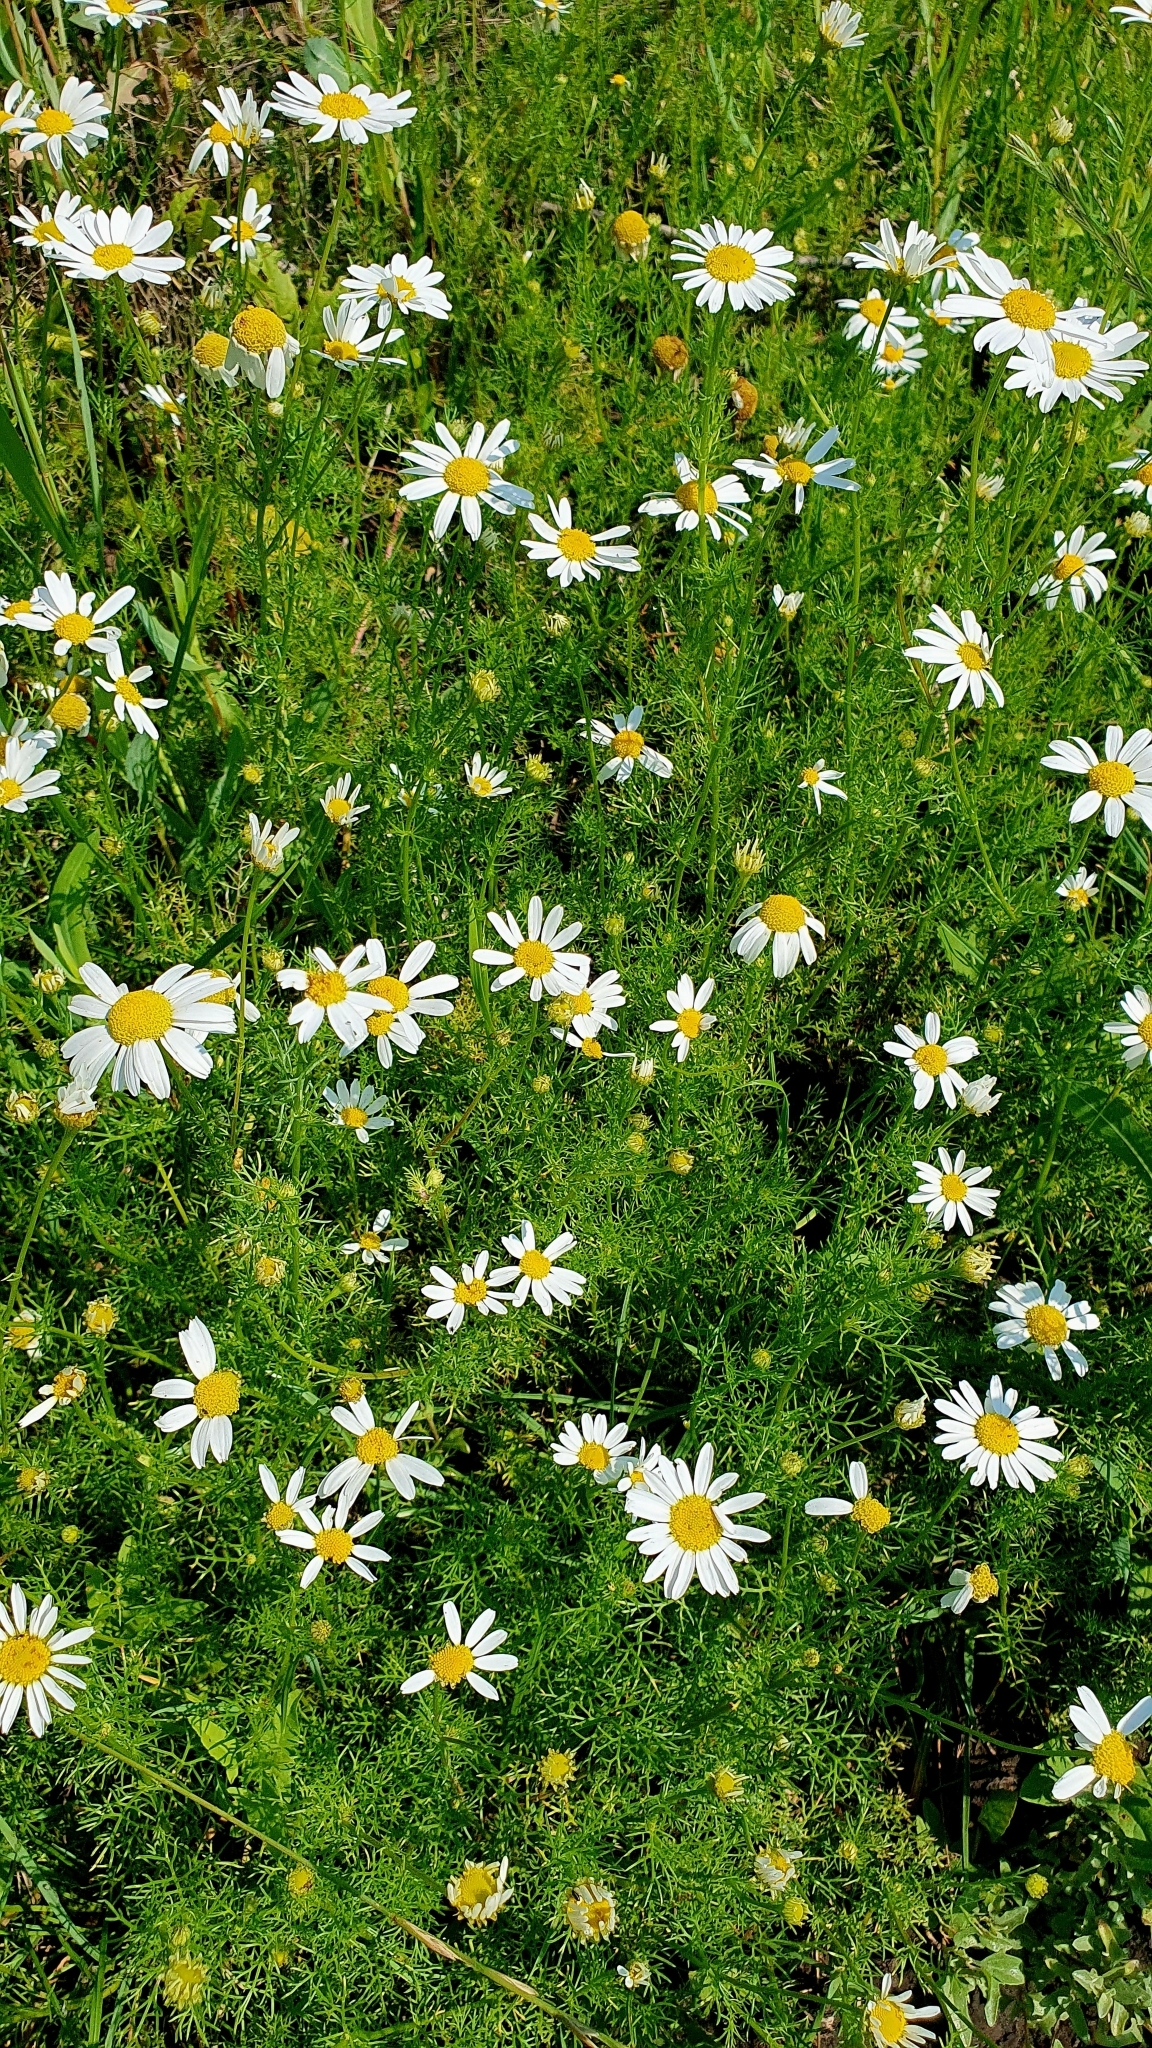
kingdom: Plantae
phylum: Tracheophyta
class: Magnoliopsida
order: Asterales
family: Asteraceae
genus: Tripleurospermum
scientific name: Tripleurospermum inodorum
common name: Scentless mayweed
